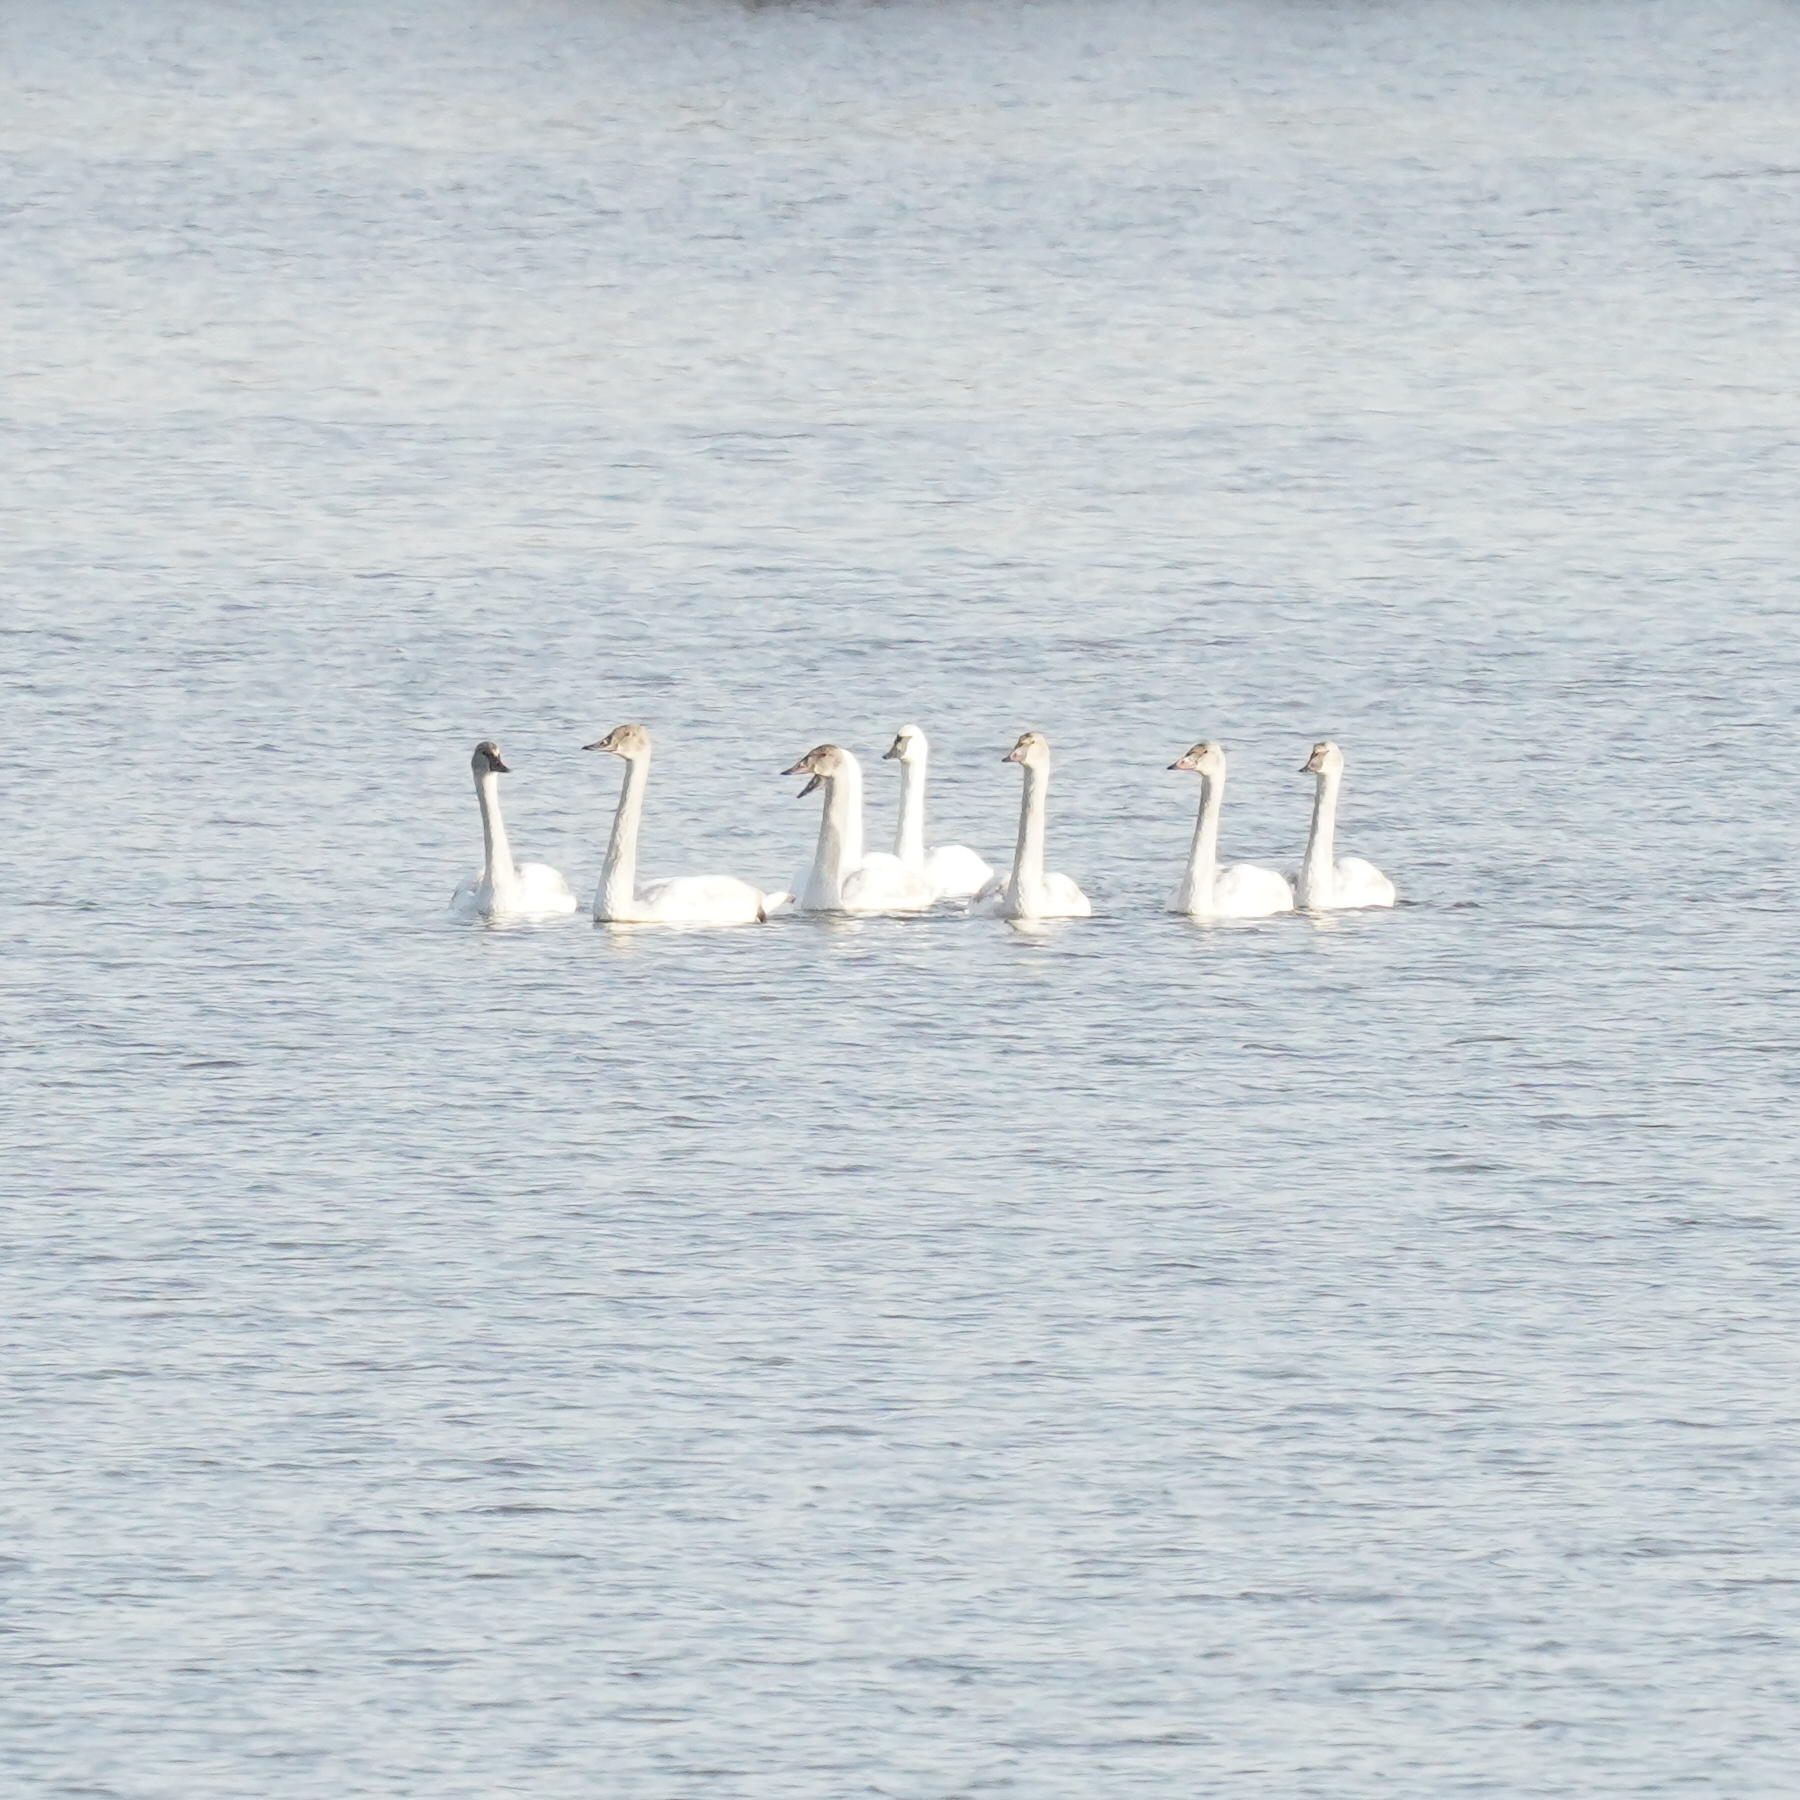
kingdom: Animalia
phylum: Chordata
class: Aves
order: Anseriformes
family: Anatidae
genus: Cygnus
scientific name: Cygnus buccinator
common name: Trumpeter swan
